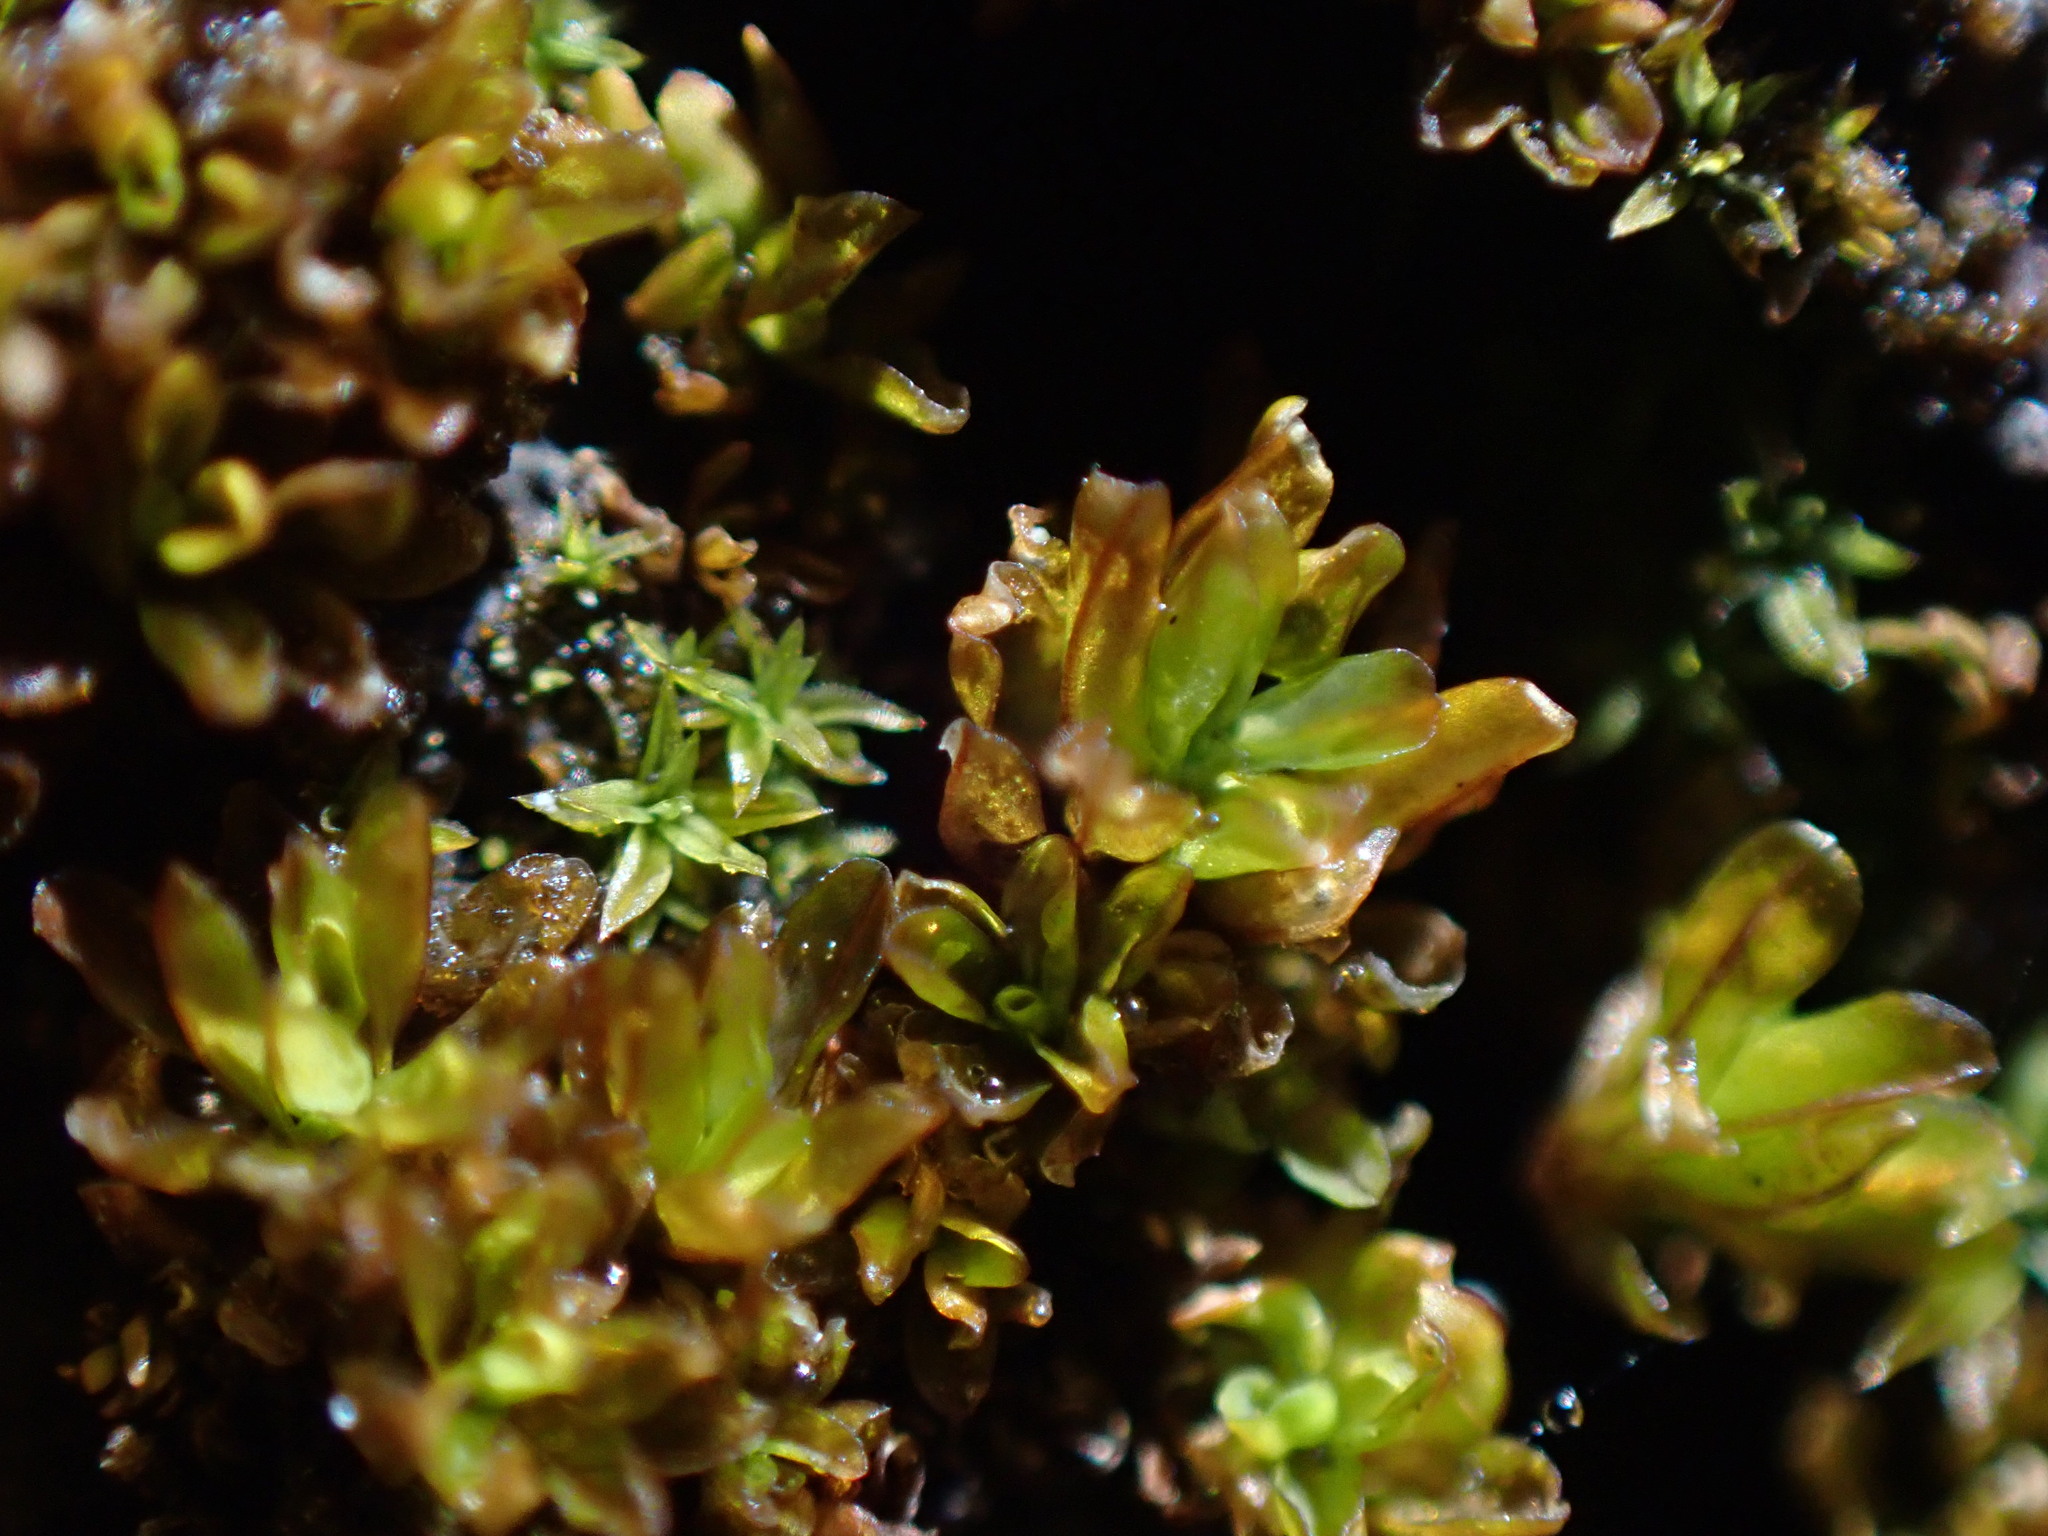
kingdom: Plantae
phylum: Bryophyta
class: Bryopsida
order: Pottiales
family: Pottiaceae
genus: Syntrichia
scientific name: Syntrichia latifolia
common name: Water screw-moss
